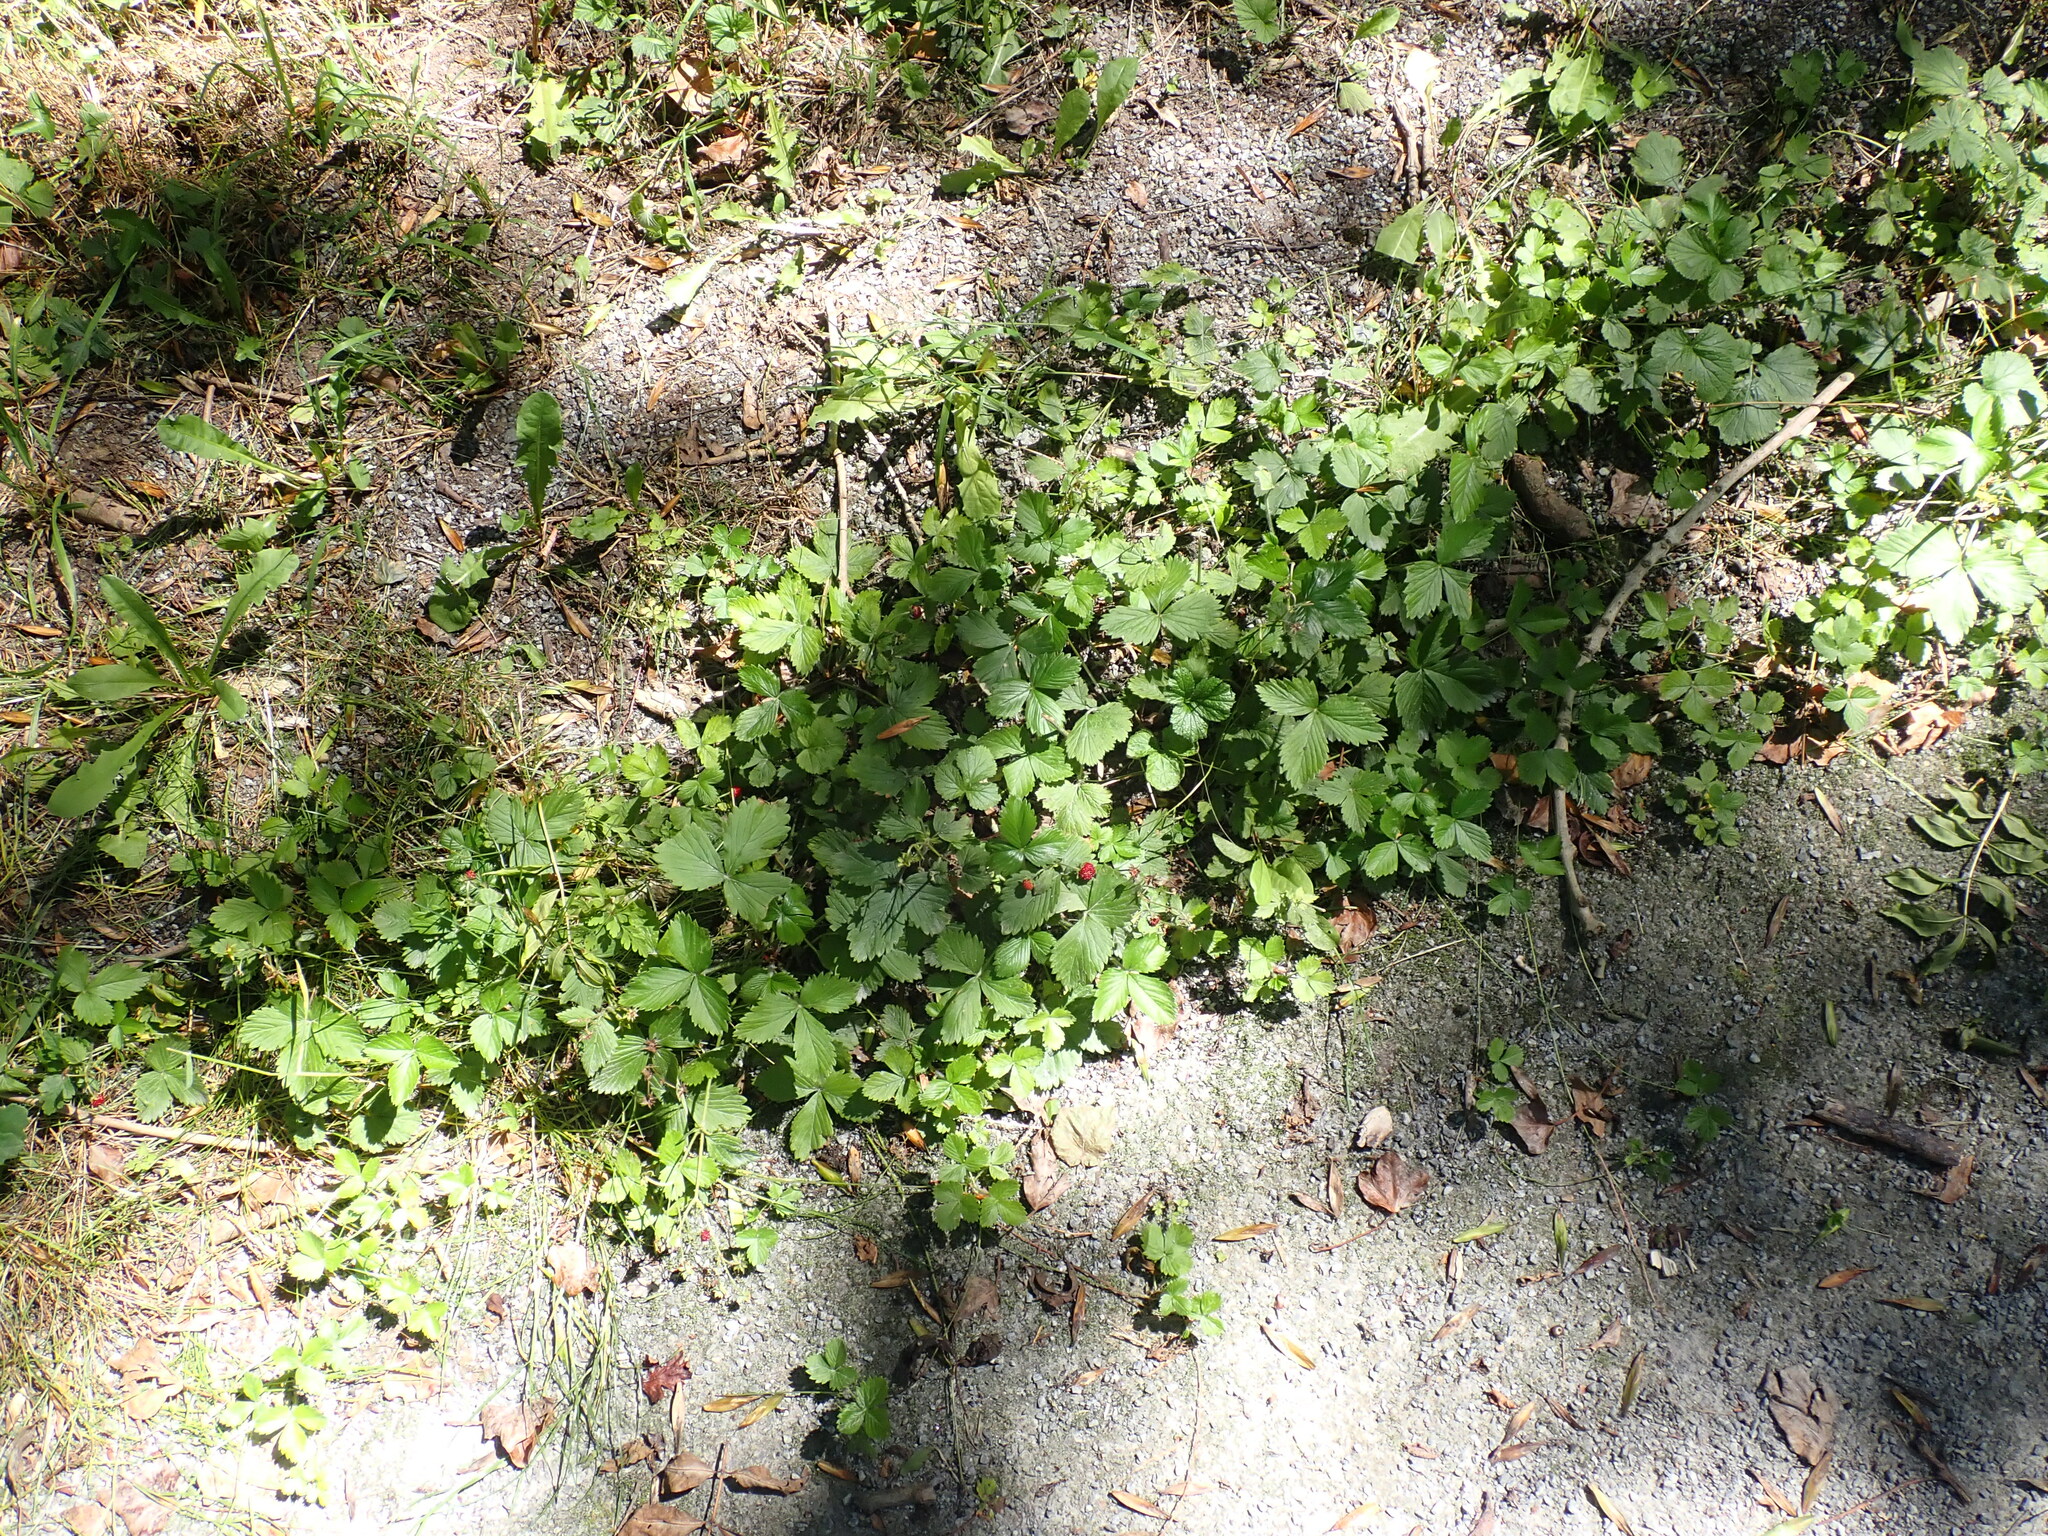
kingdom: Plantae
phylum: Tracheophyta
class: Magnoliopsida
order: Rosales
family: Rosaceae
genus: Fragaria
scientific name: Fragaria vesca
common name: Wild strawberry
